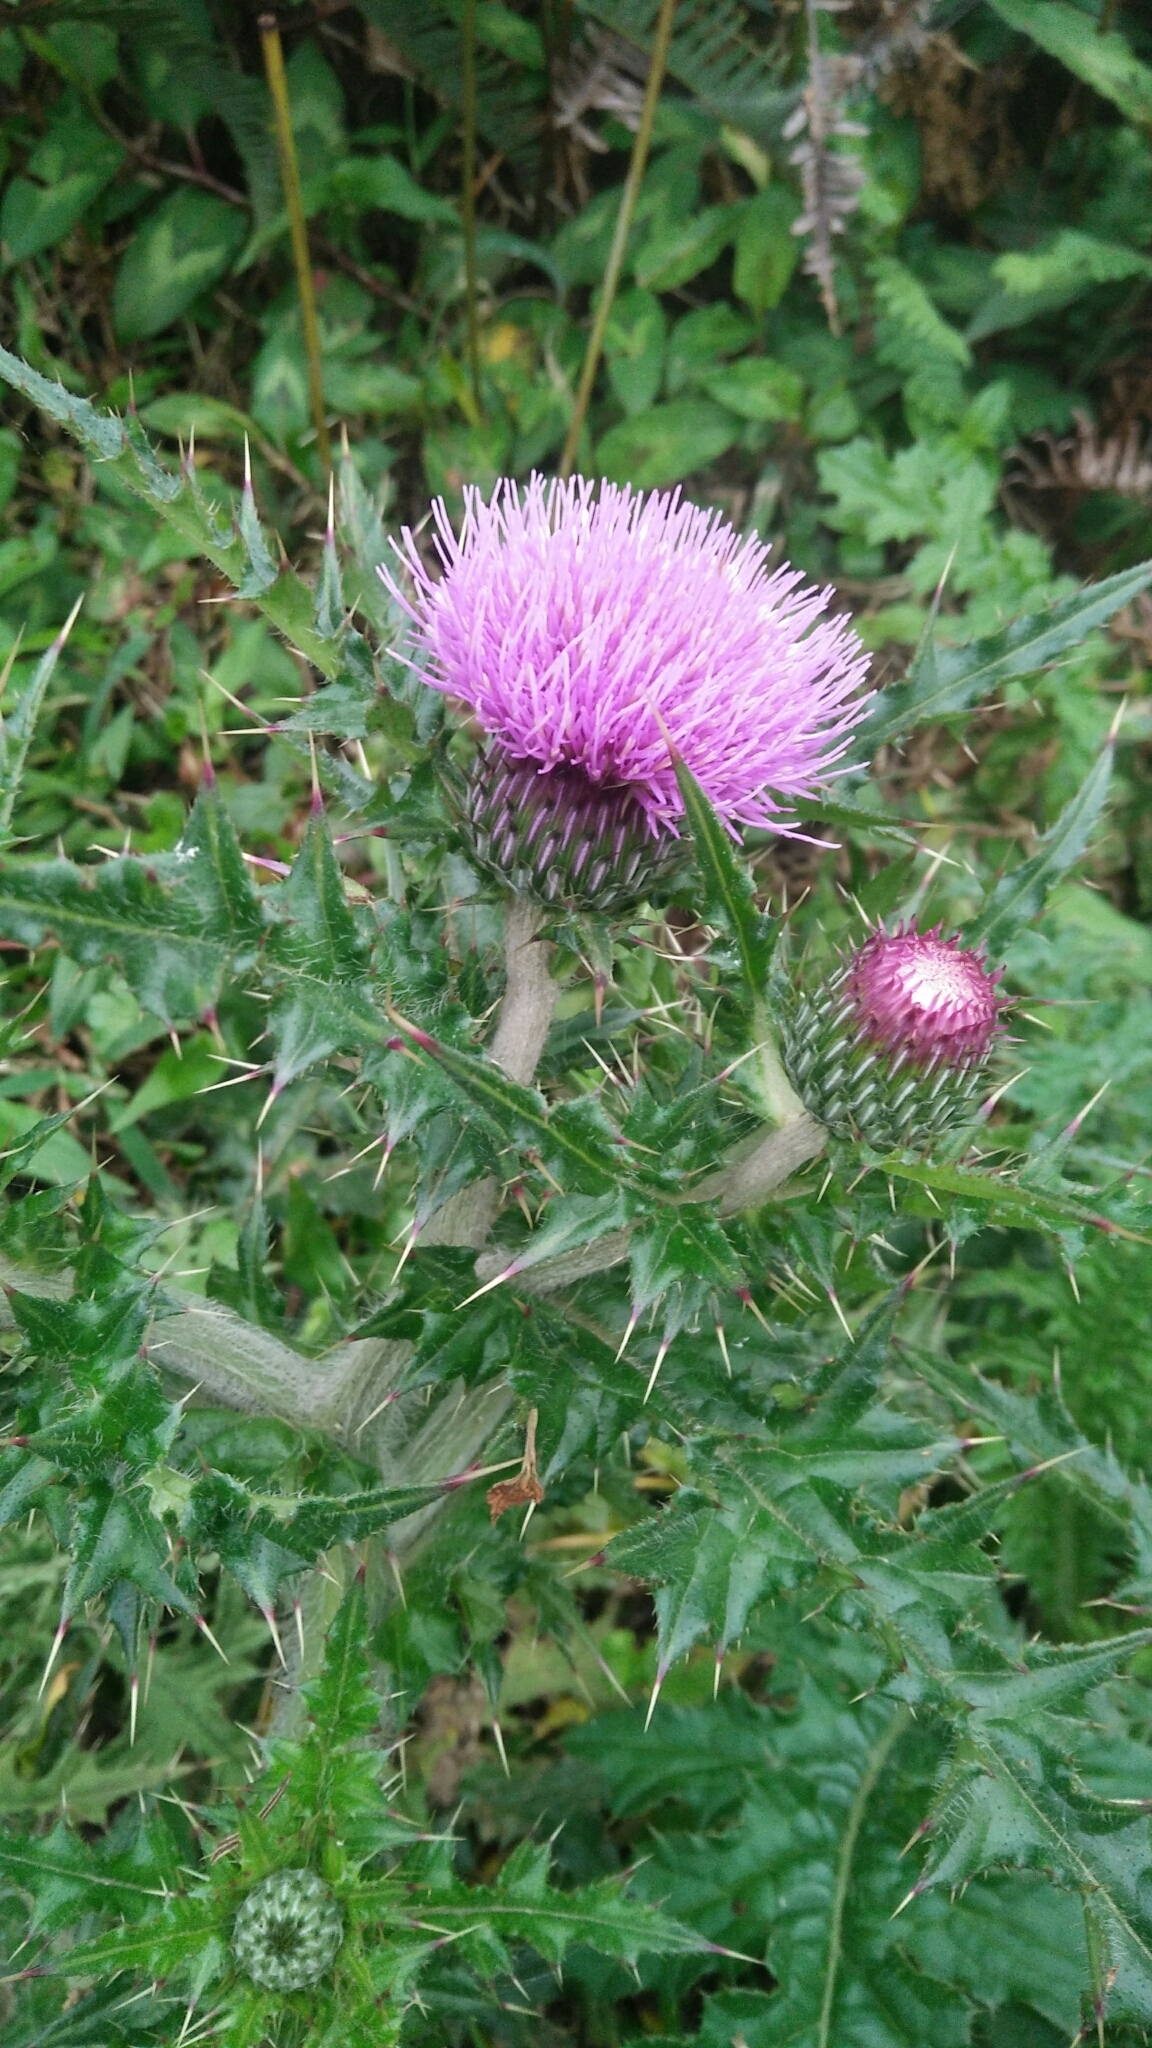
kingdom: Plantae
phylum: Tracheophyta
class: Magnoliopsida
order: Asterales
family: Asteraceae
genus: Cirsium
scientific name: Cirsium japonicum
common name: Japanese thistle
